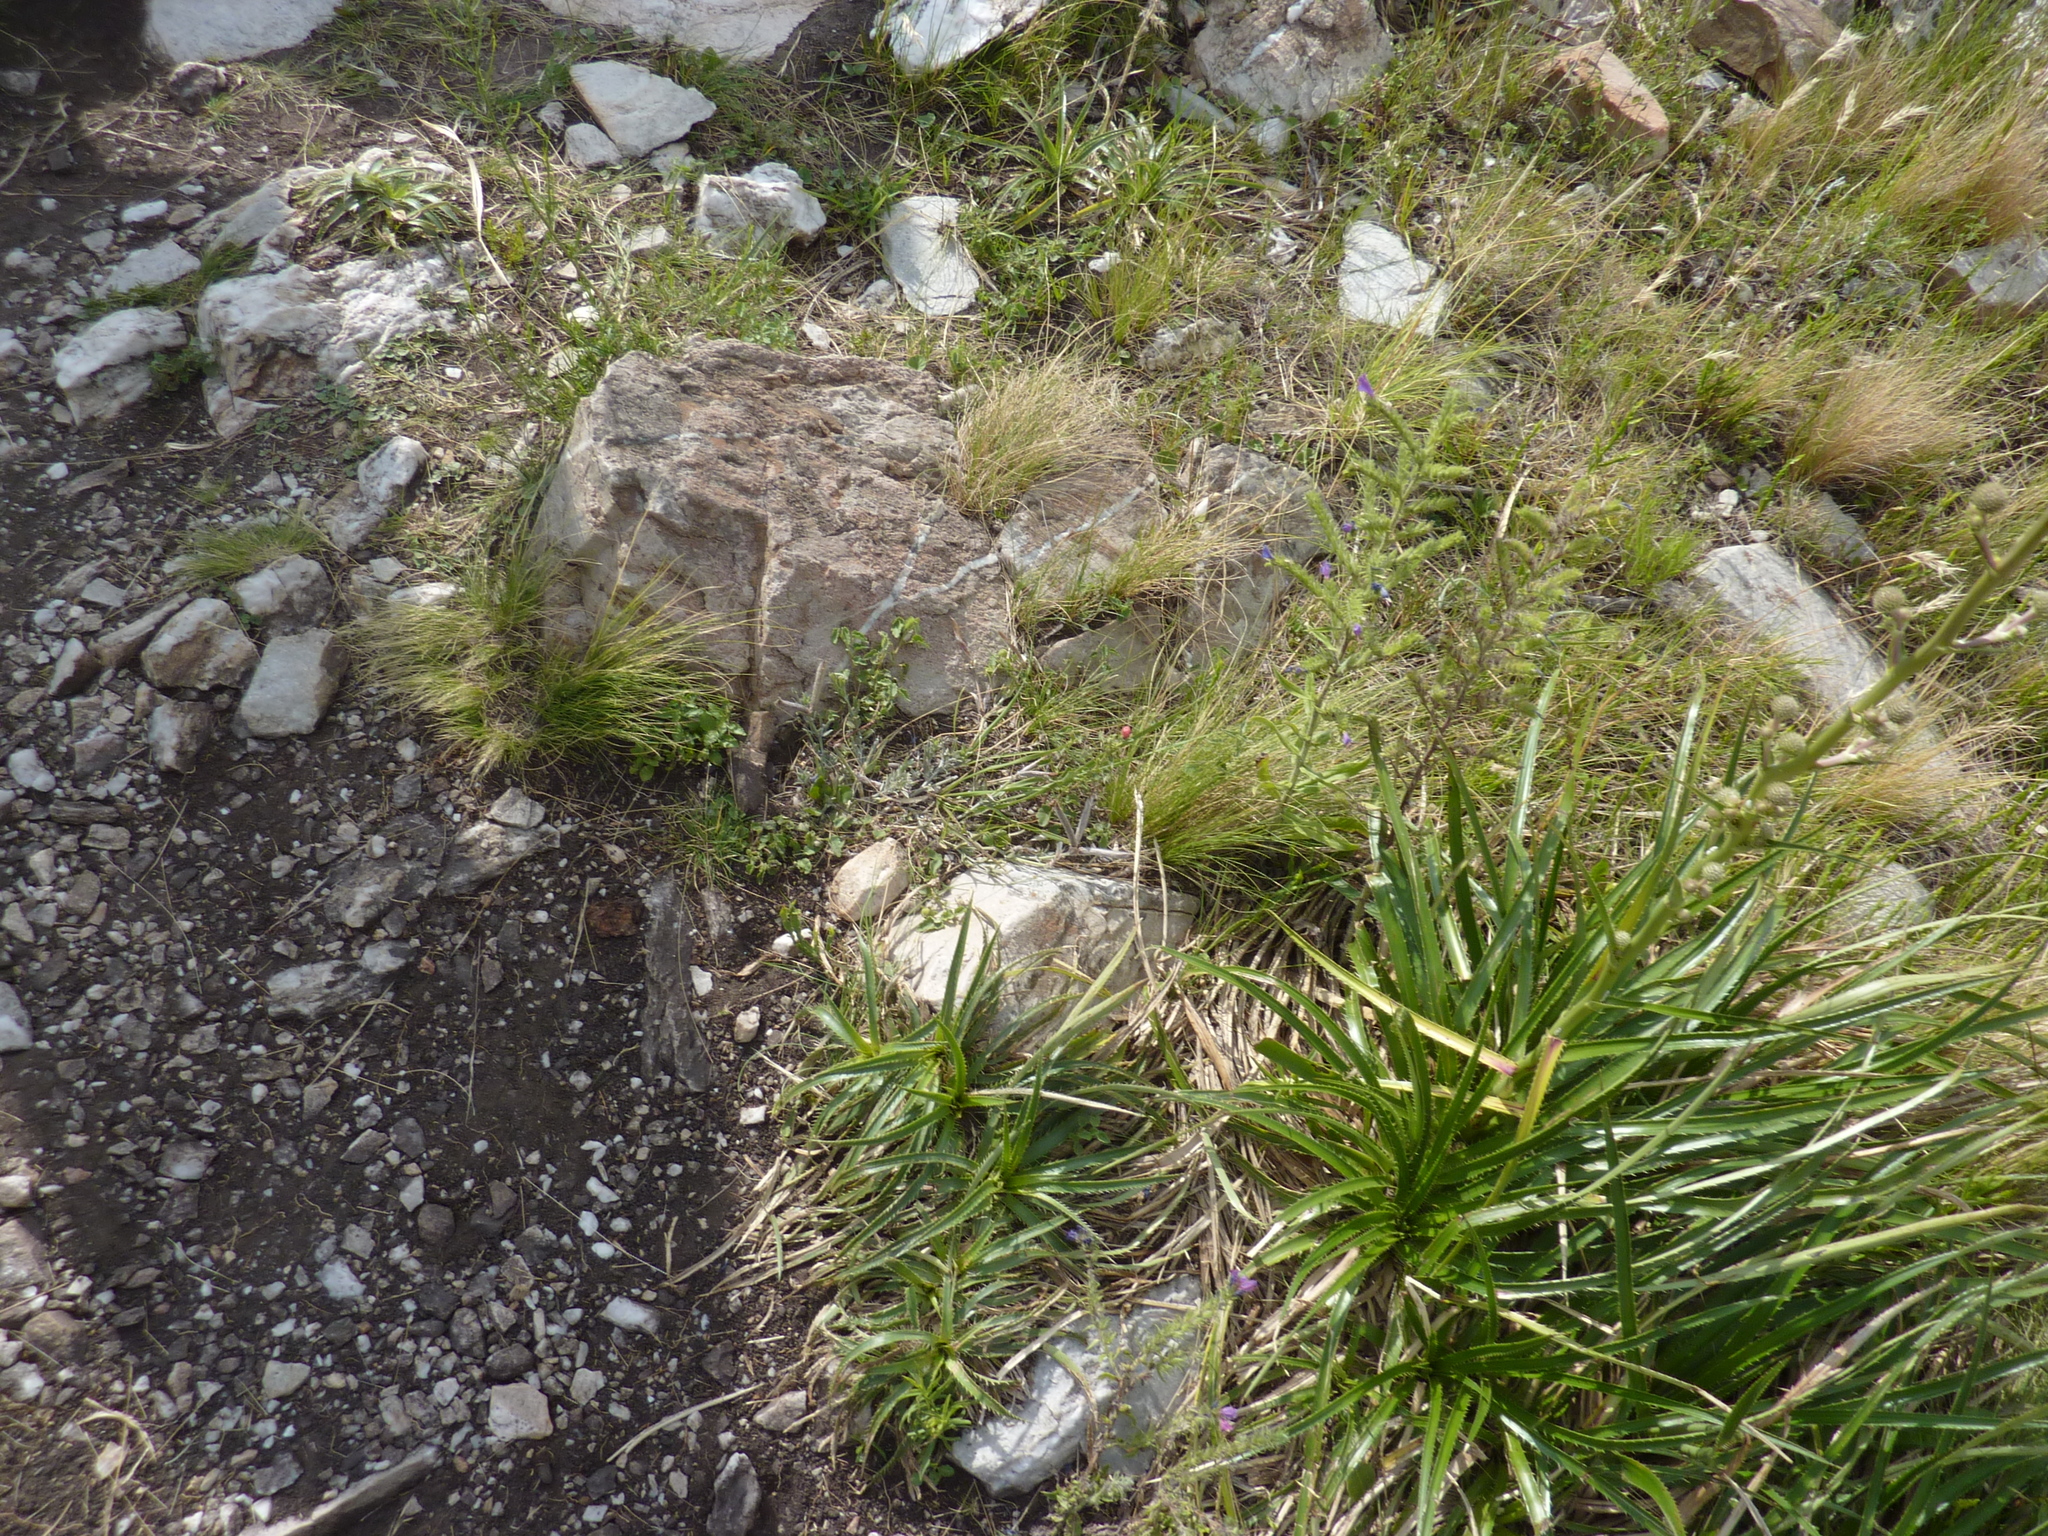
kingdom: Plantae
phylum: Tracheophyta
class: Magnoliopsida
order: Apiales
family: Apiaceae
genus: Eryngium
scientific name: Eryngium humboldtii
